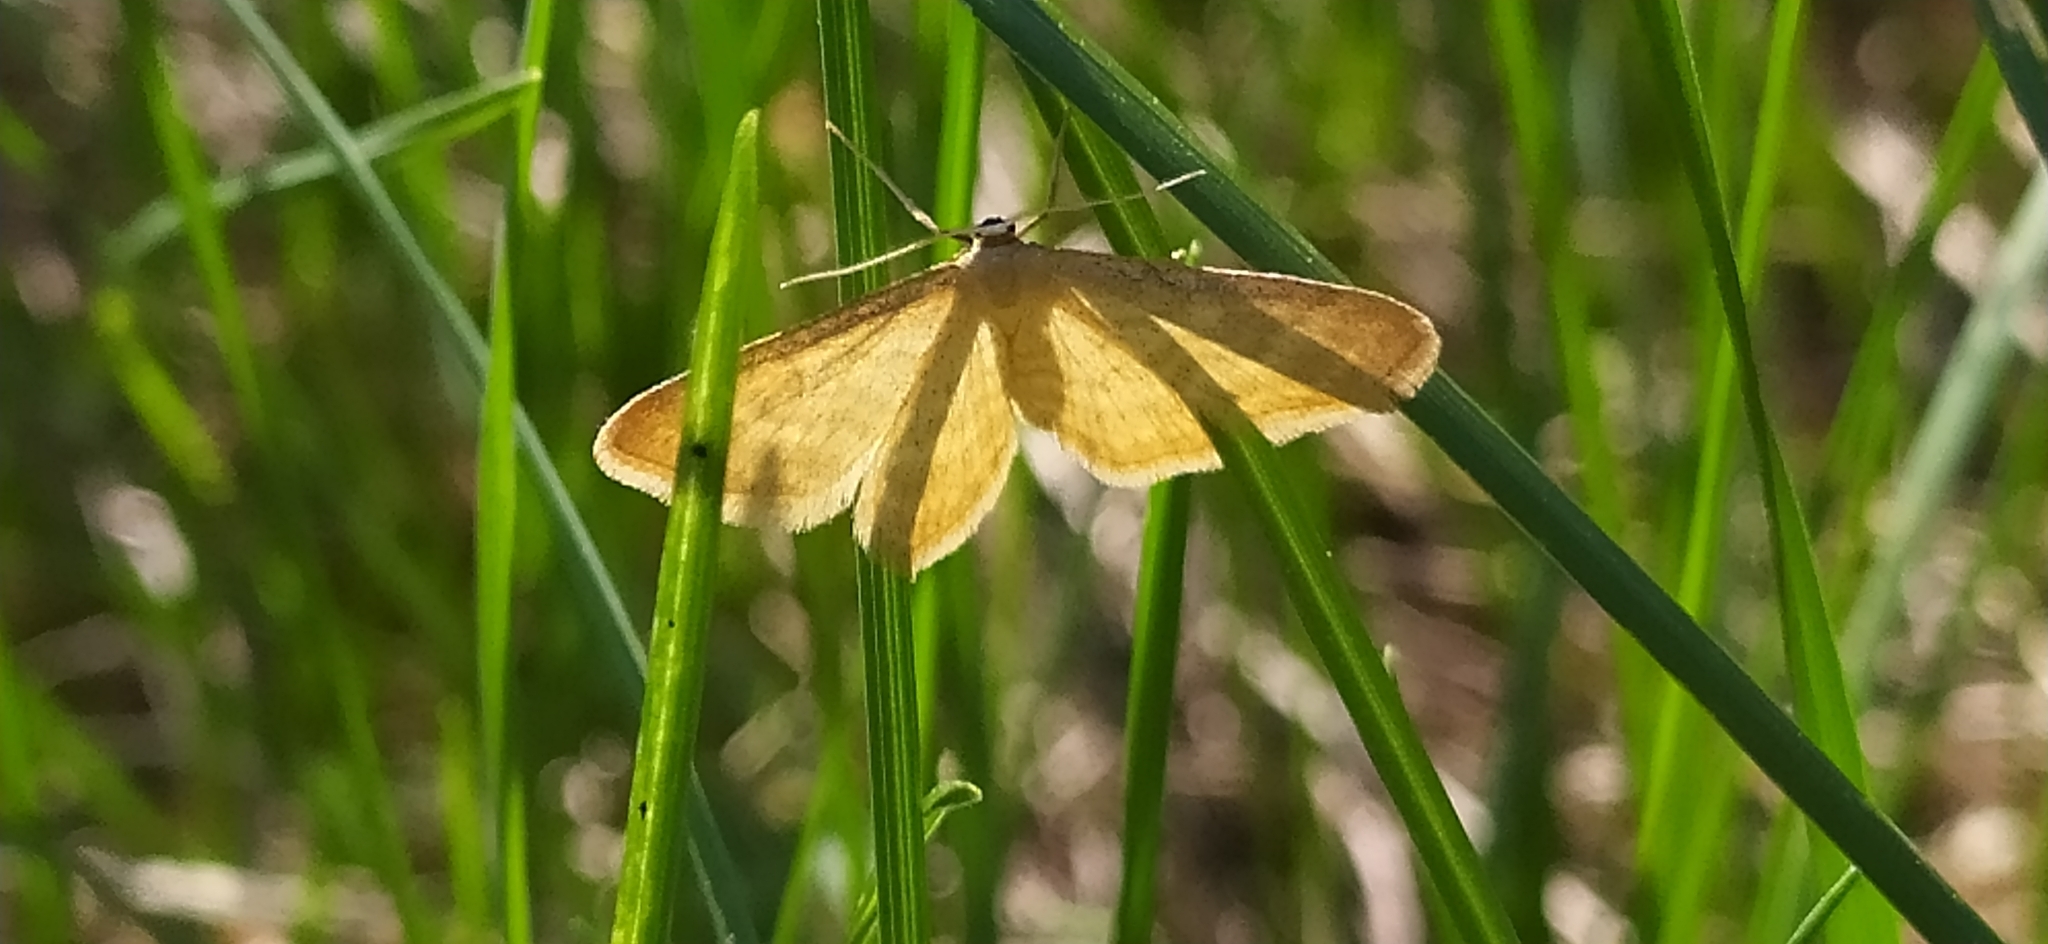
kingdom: Animalia
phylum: Arthropoda
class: Insecta
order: Lepidoptera
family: Geometridae
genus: Idaea
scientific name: Idaea pallidata
